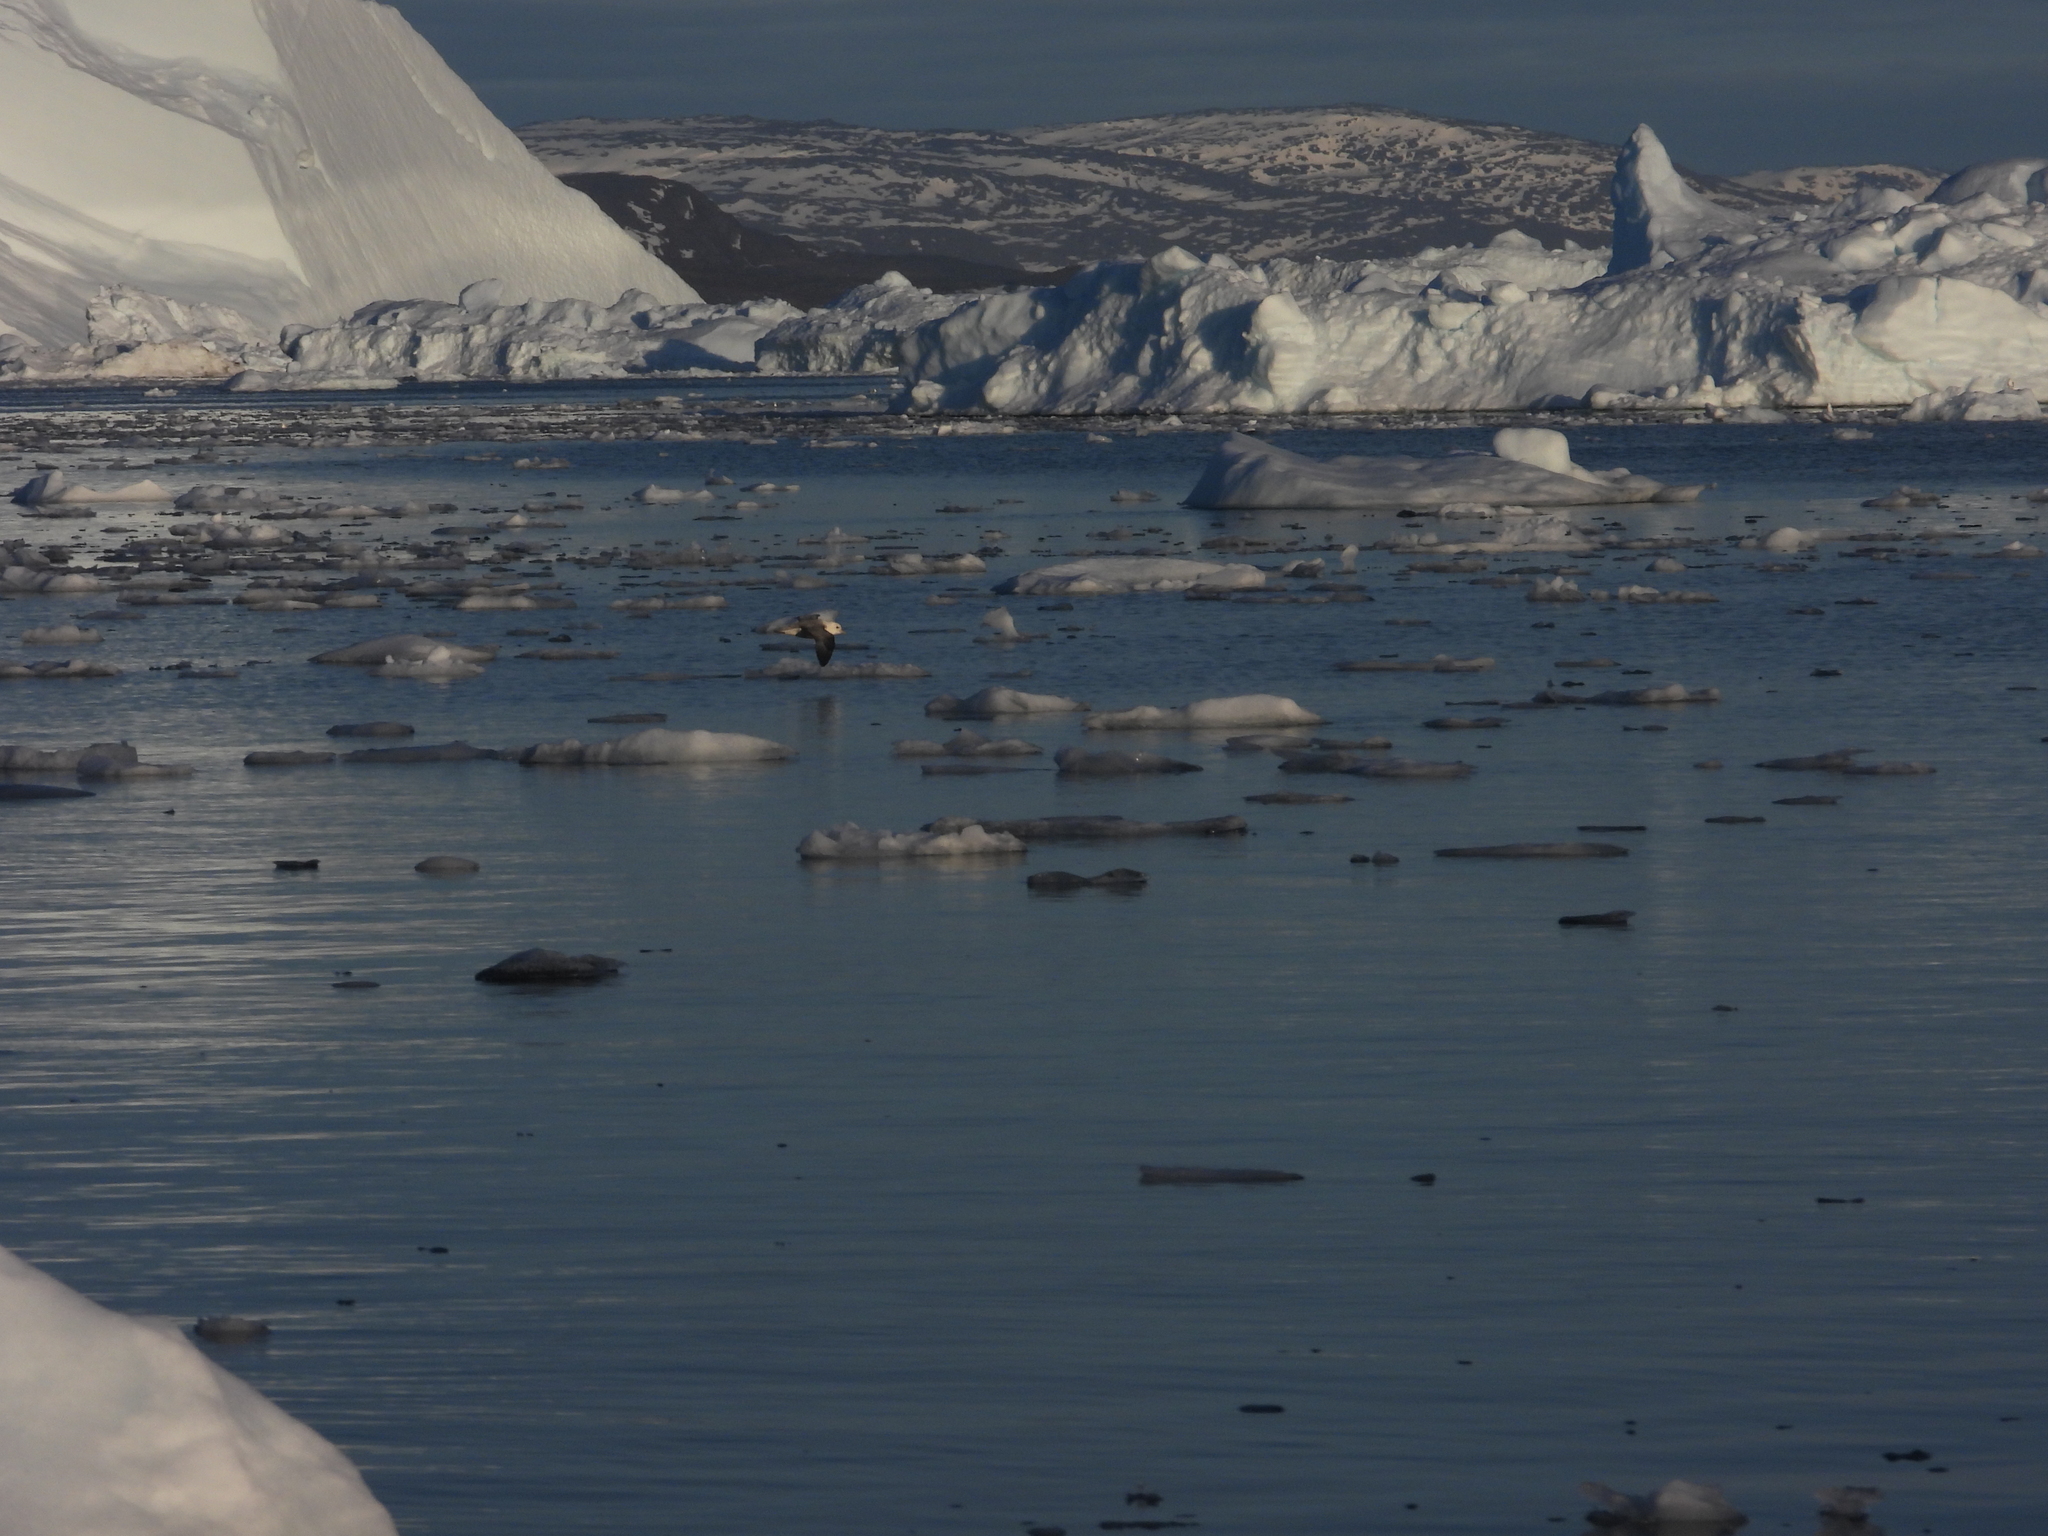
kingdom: Animalia
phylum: Chordata
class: Aves
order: Procellariiformes
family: Procellariidae
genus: Fulmarus
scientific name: Fulmarus glacialis
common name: Northern fulmar
